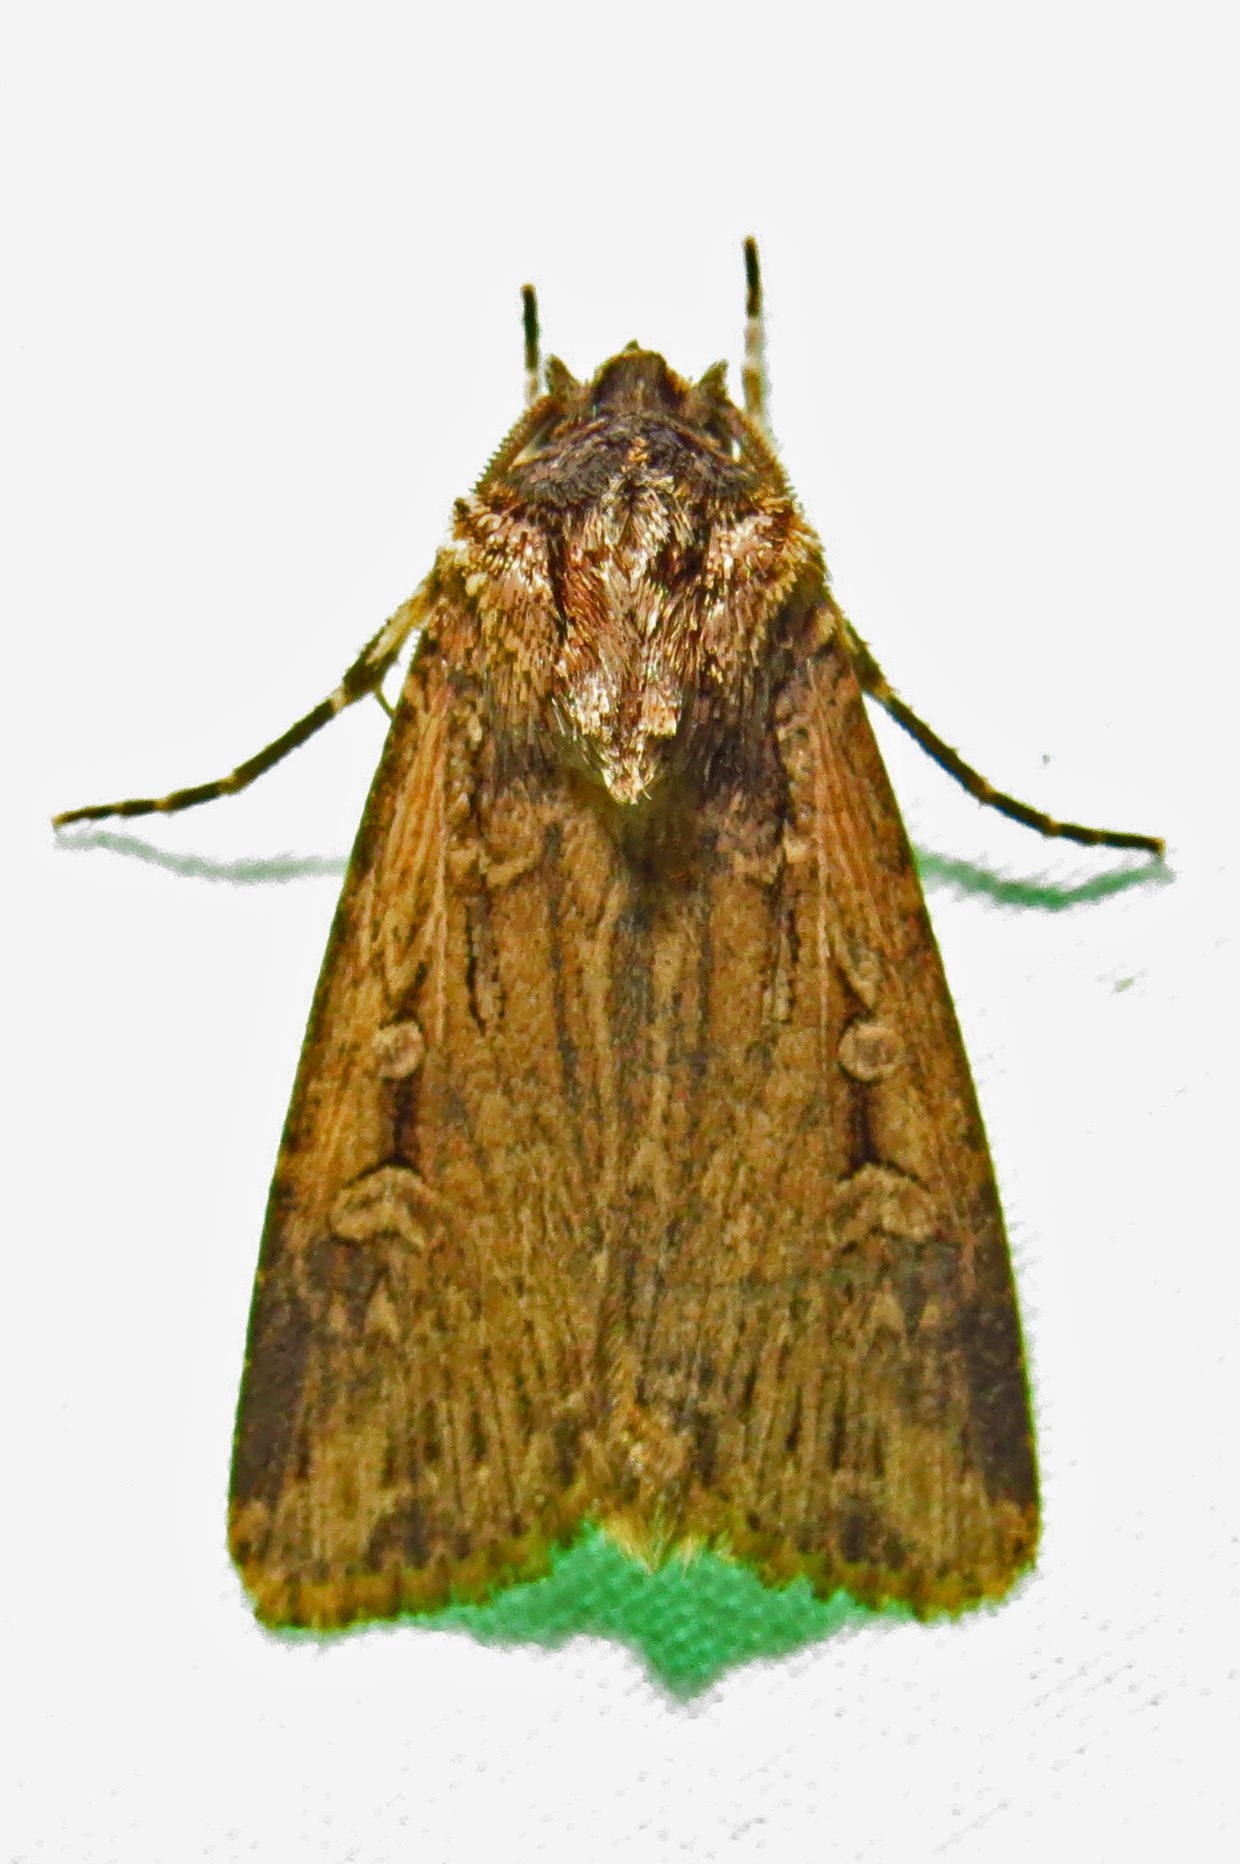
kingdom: Animalia
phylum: Arthropoda
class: Insecta
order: Lepidoptera
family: Noctuidae
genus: Feltia
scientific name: Feltia subterranea
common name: Granulate cutworm
